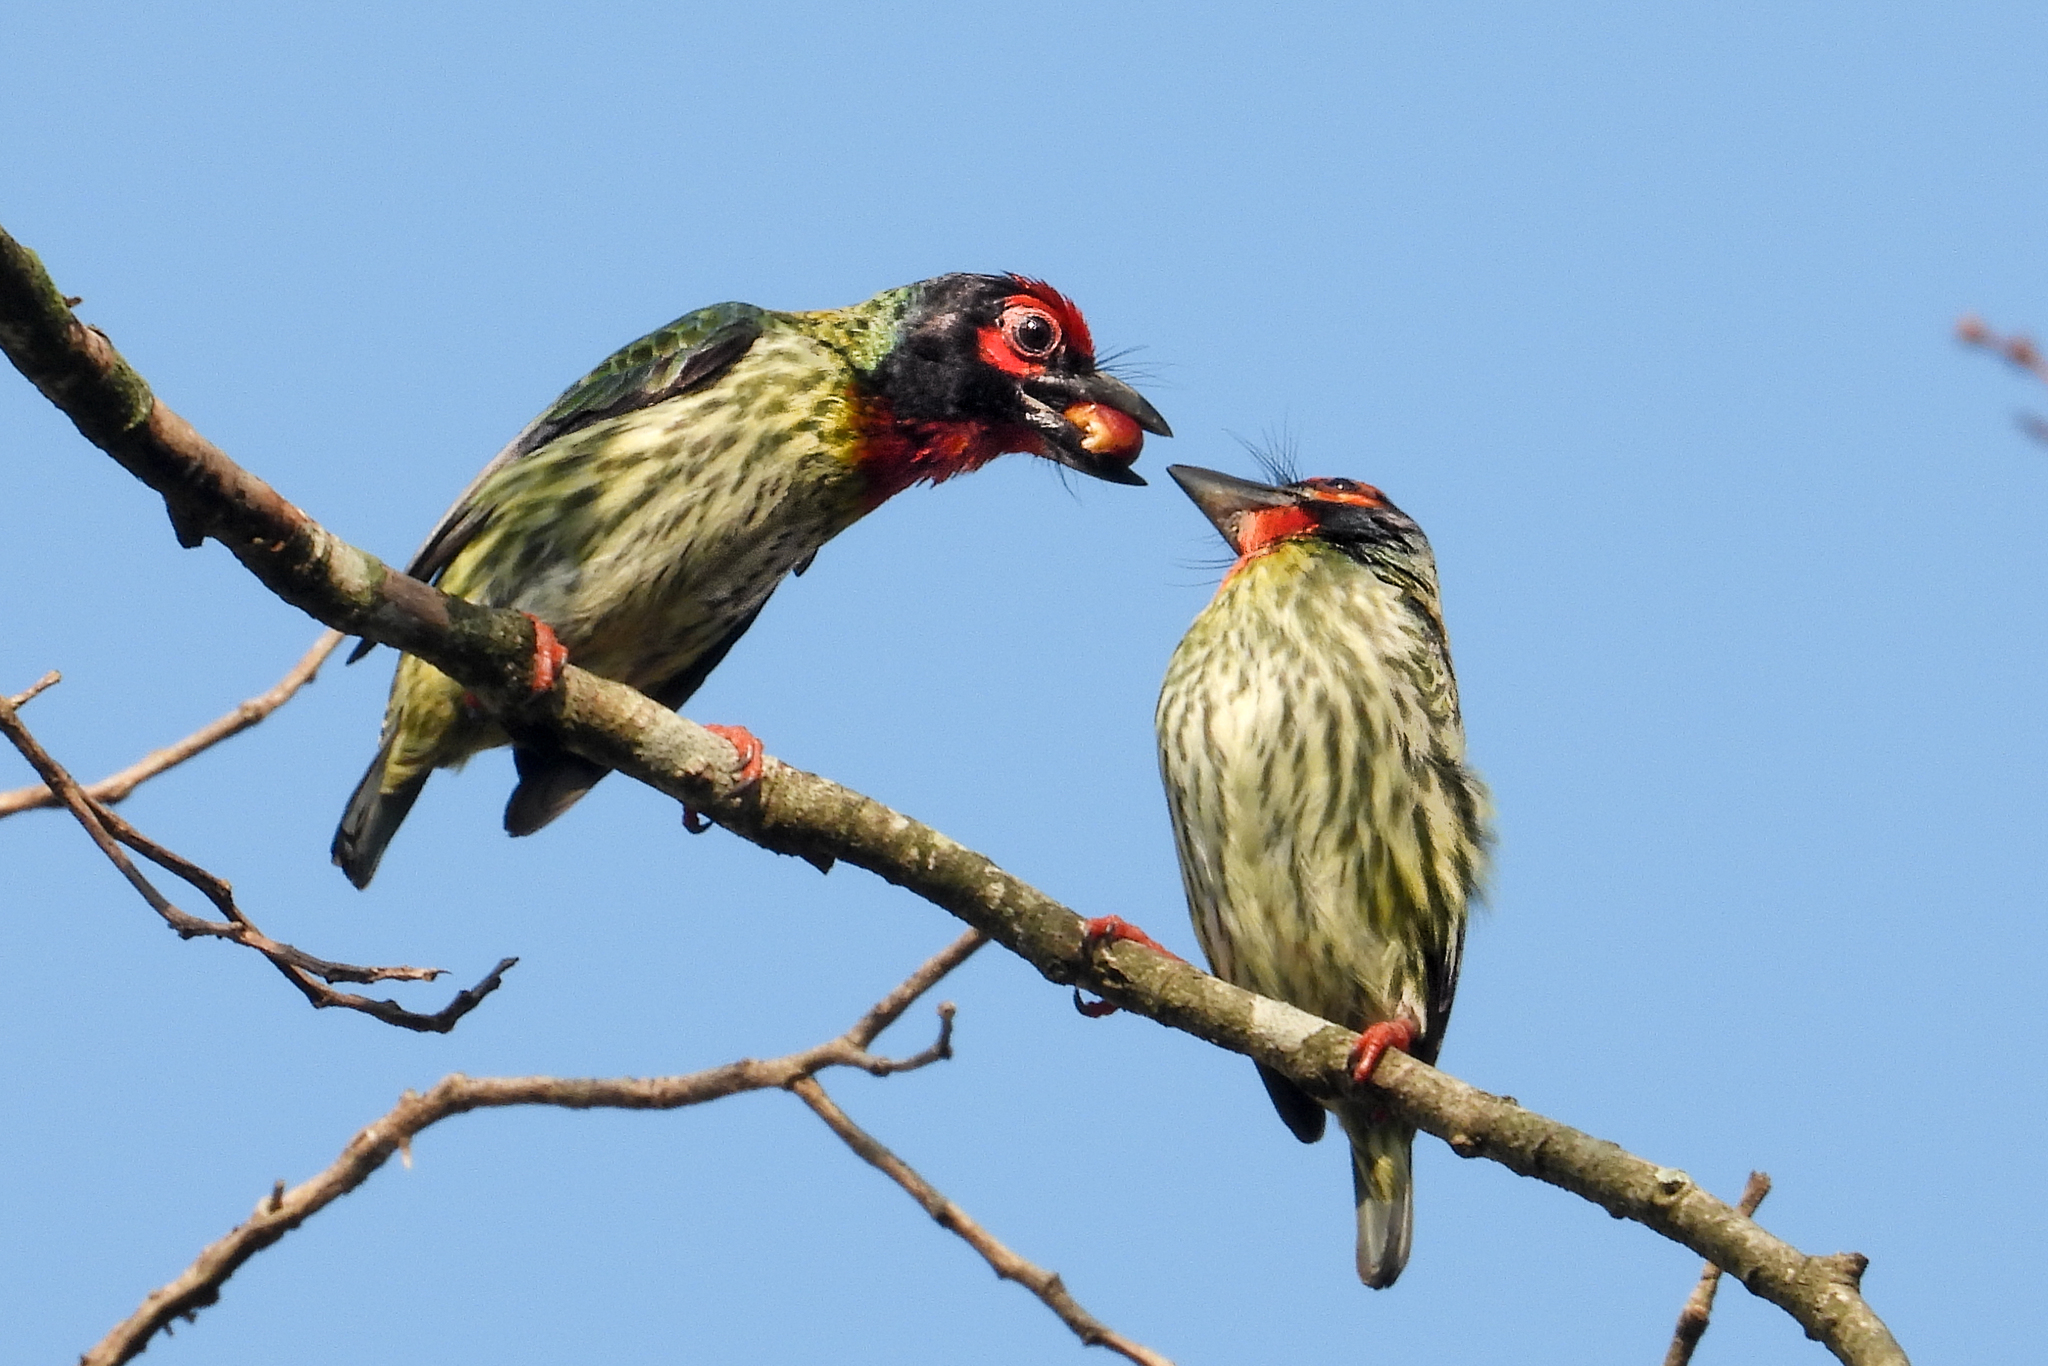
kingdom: Animalia
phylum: Chordata
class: Aves
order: Piciformes
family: Megalaimidae
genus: Psilopogon
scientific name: Psilopogon haemacephalus
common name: Coppersmith barbet
